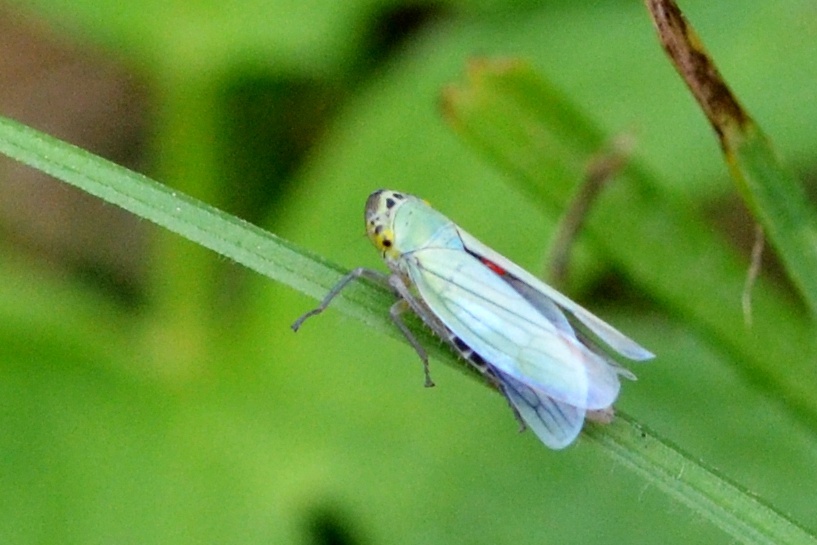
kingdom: Animalia
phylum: Arthropoda
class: Insecta
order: Hemiptera
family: Cicadellidae
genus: Cicadella
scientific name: Cicadella viridis
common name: Leafhopper
